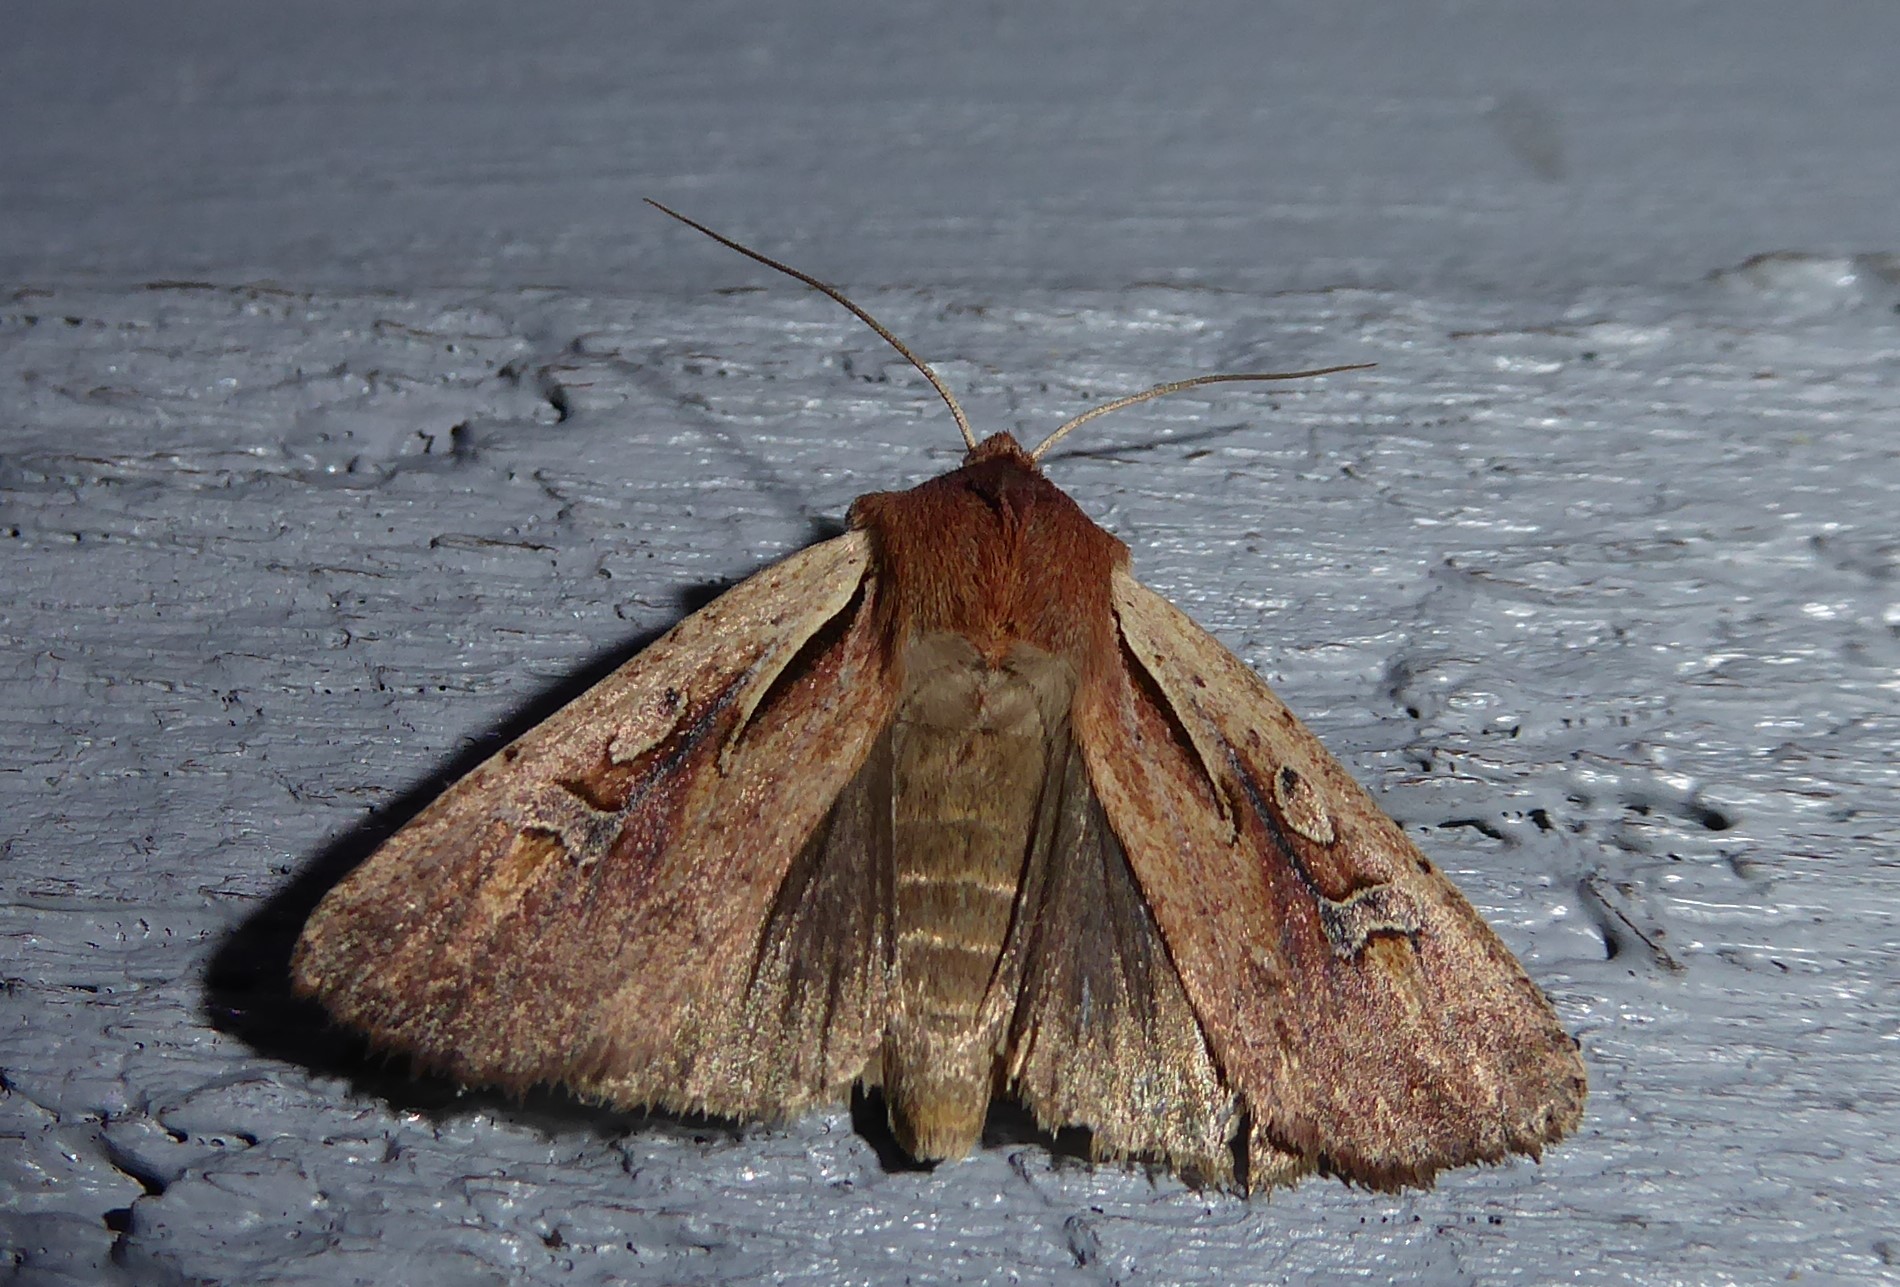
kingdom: Animalia
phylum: Arthropoda
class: Insecta
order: Lepidoptera
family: Noctuidae
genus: Ichneutica
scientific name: Ichneutica atristriga
